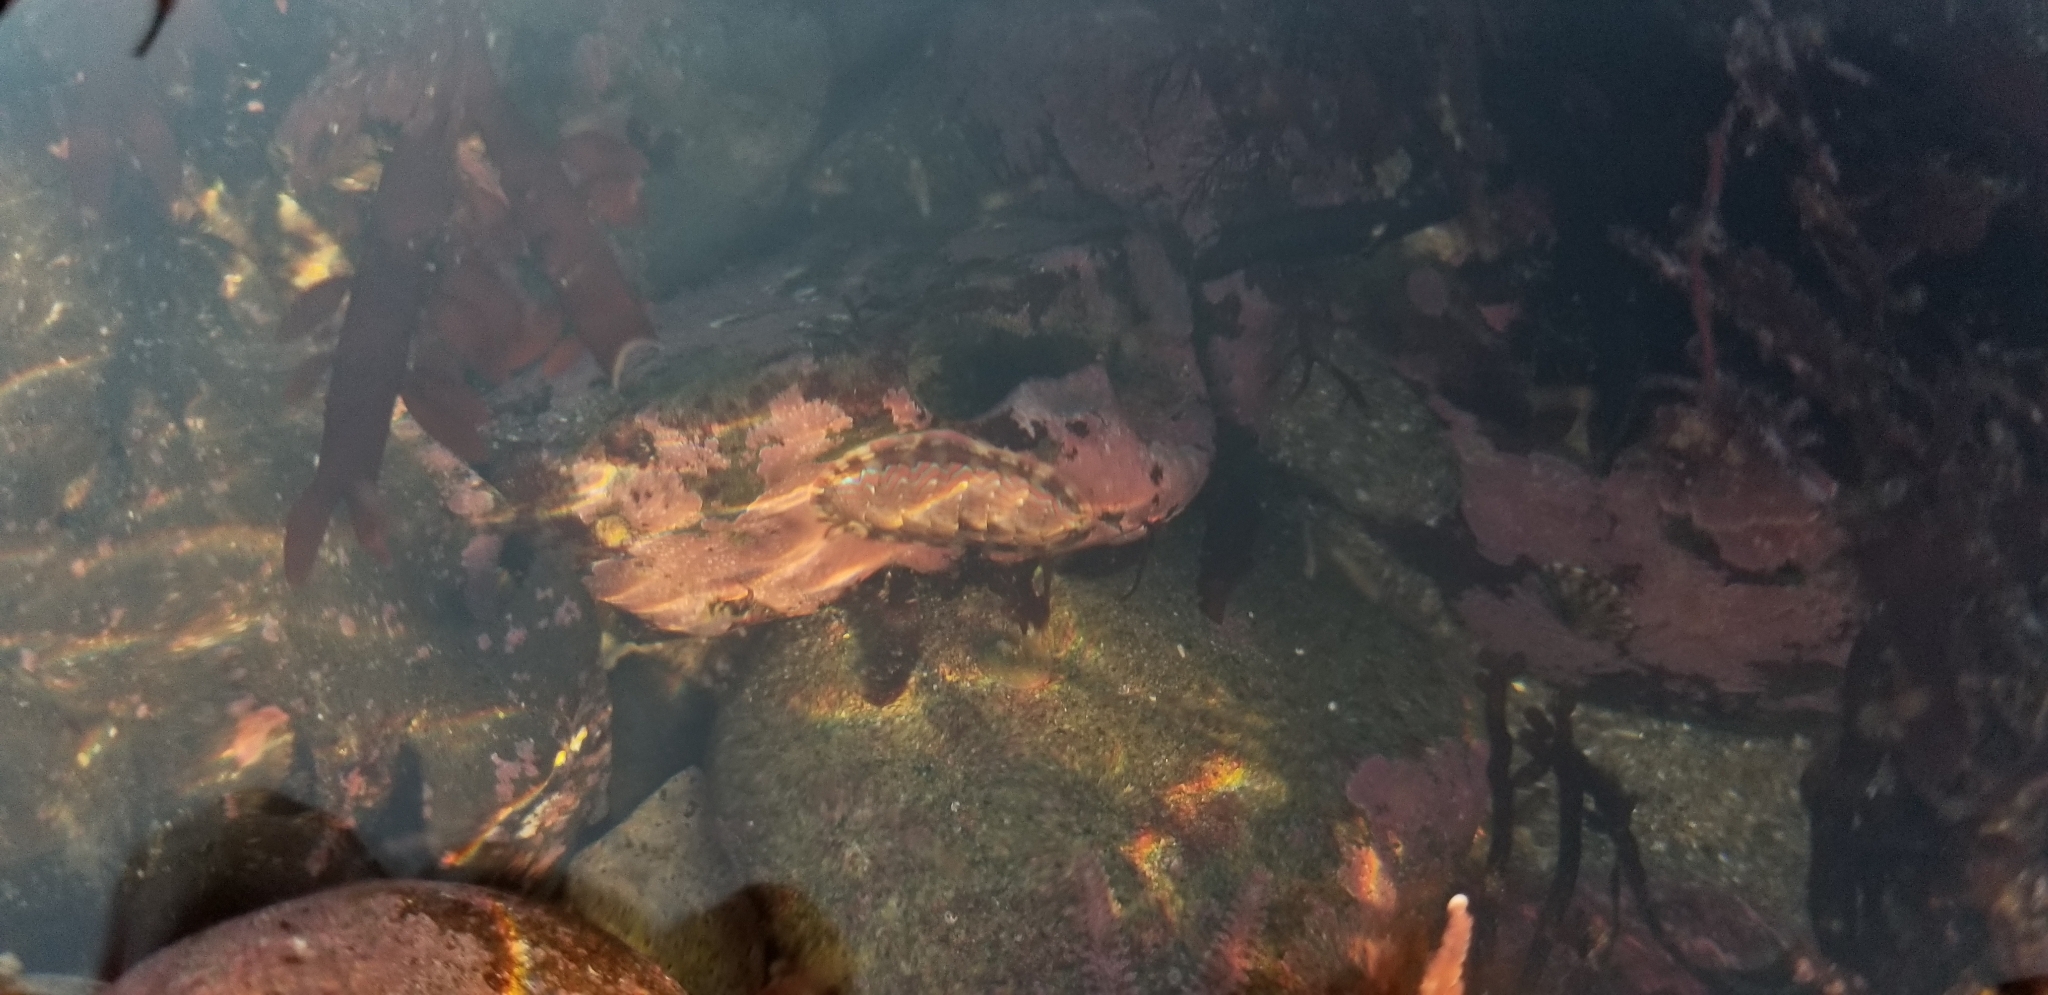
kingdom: Animalia
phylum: Mollusca
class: Polyplacophora
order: Chitonida
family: Tonicellidae
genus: Tonicella
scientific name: Tonicella lokii
